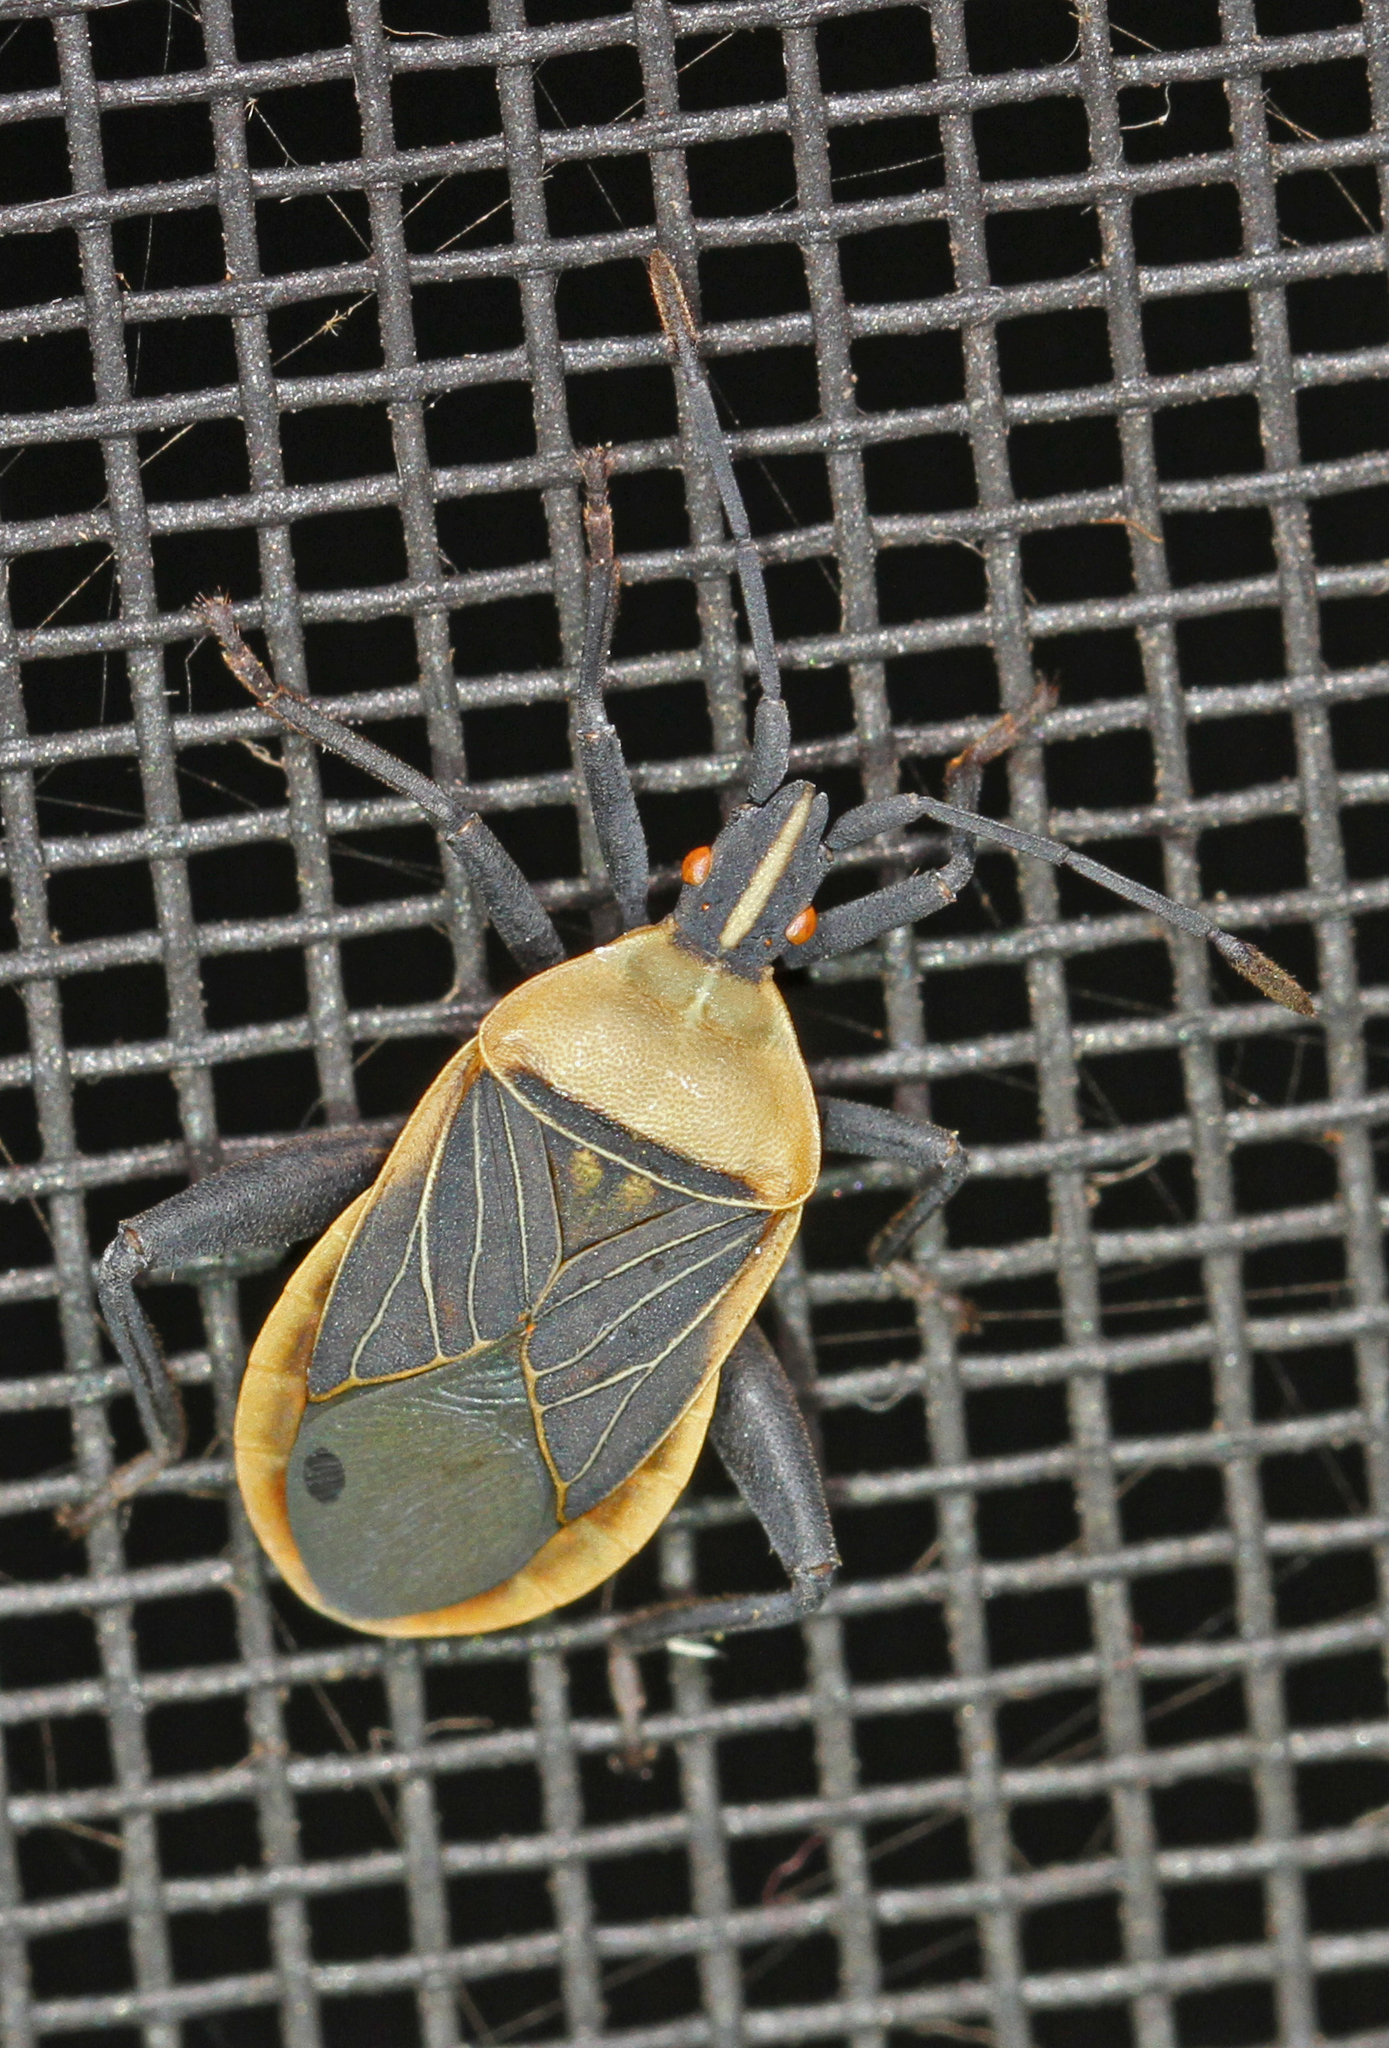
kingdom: Animalia
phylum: Arthropoda
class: Insecta
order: Hemiptera
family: Coreidae
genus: Chelinidea
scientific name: Chelinidea vittiger
